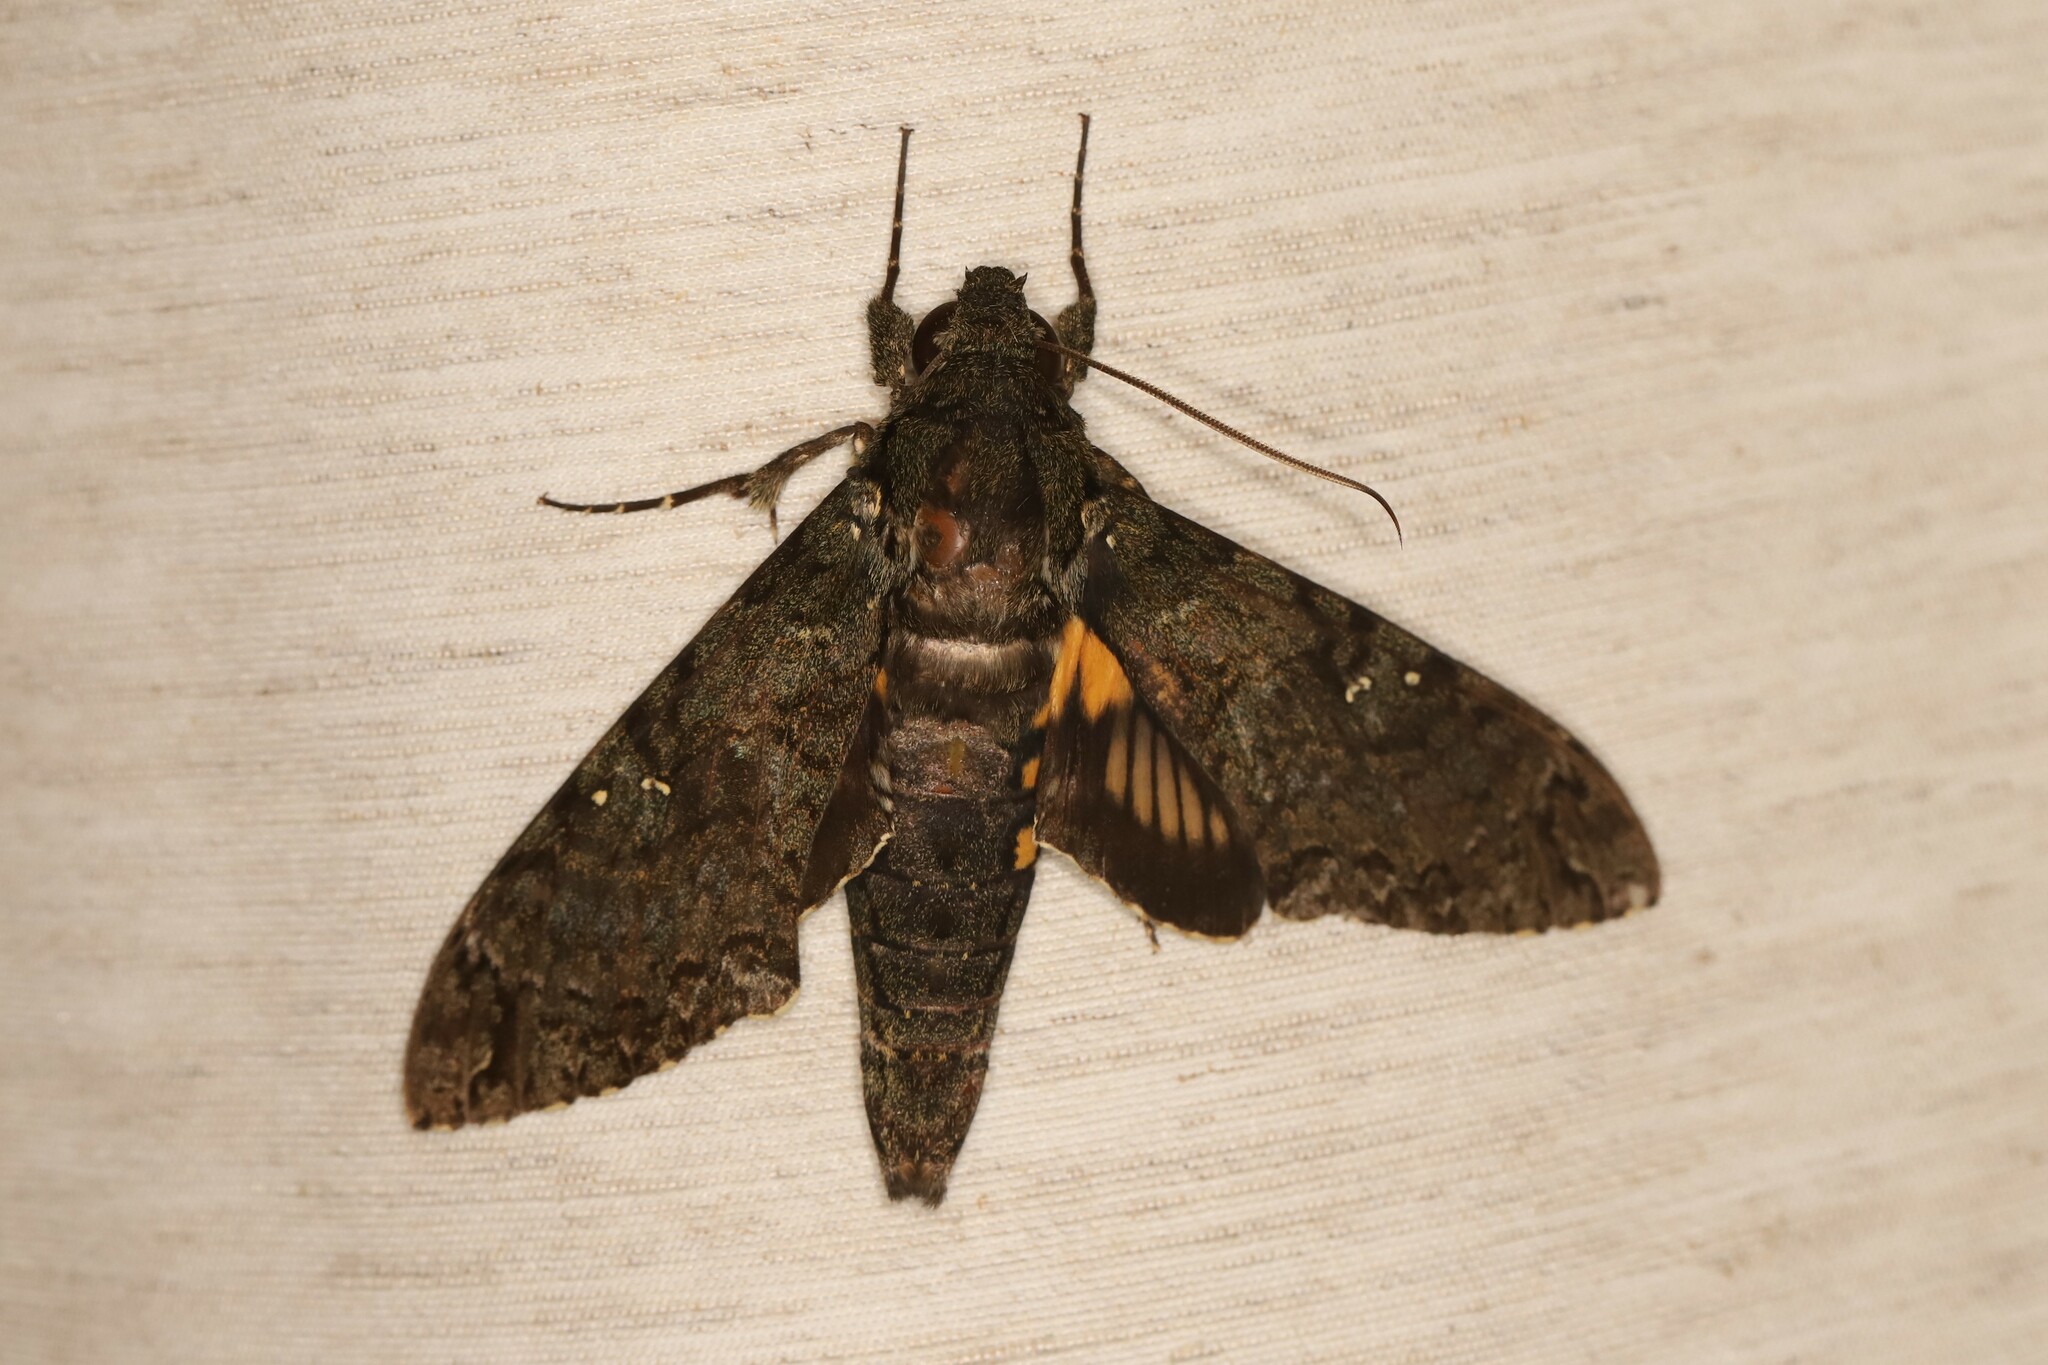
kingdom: Animalia
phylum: Arthropoda
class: Insecta
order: Lepidoptera
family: Sphingidae
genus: Cocytius
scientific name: Cocytius duponchel
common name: Duponchel's sphinx
